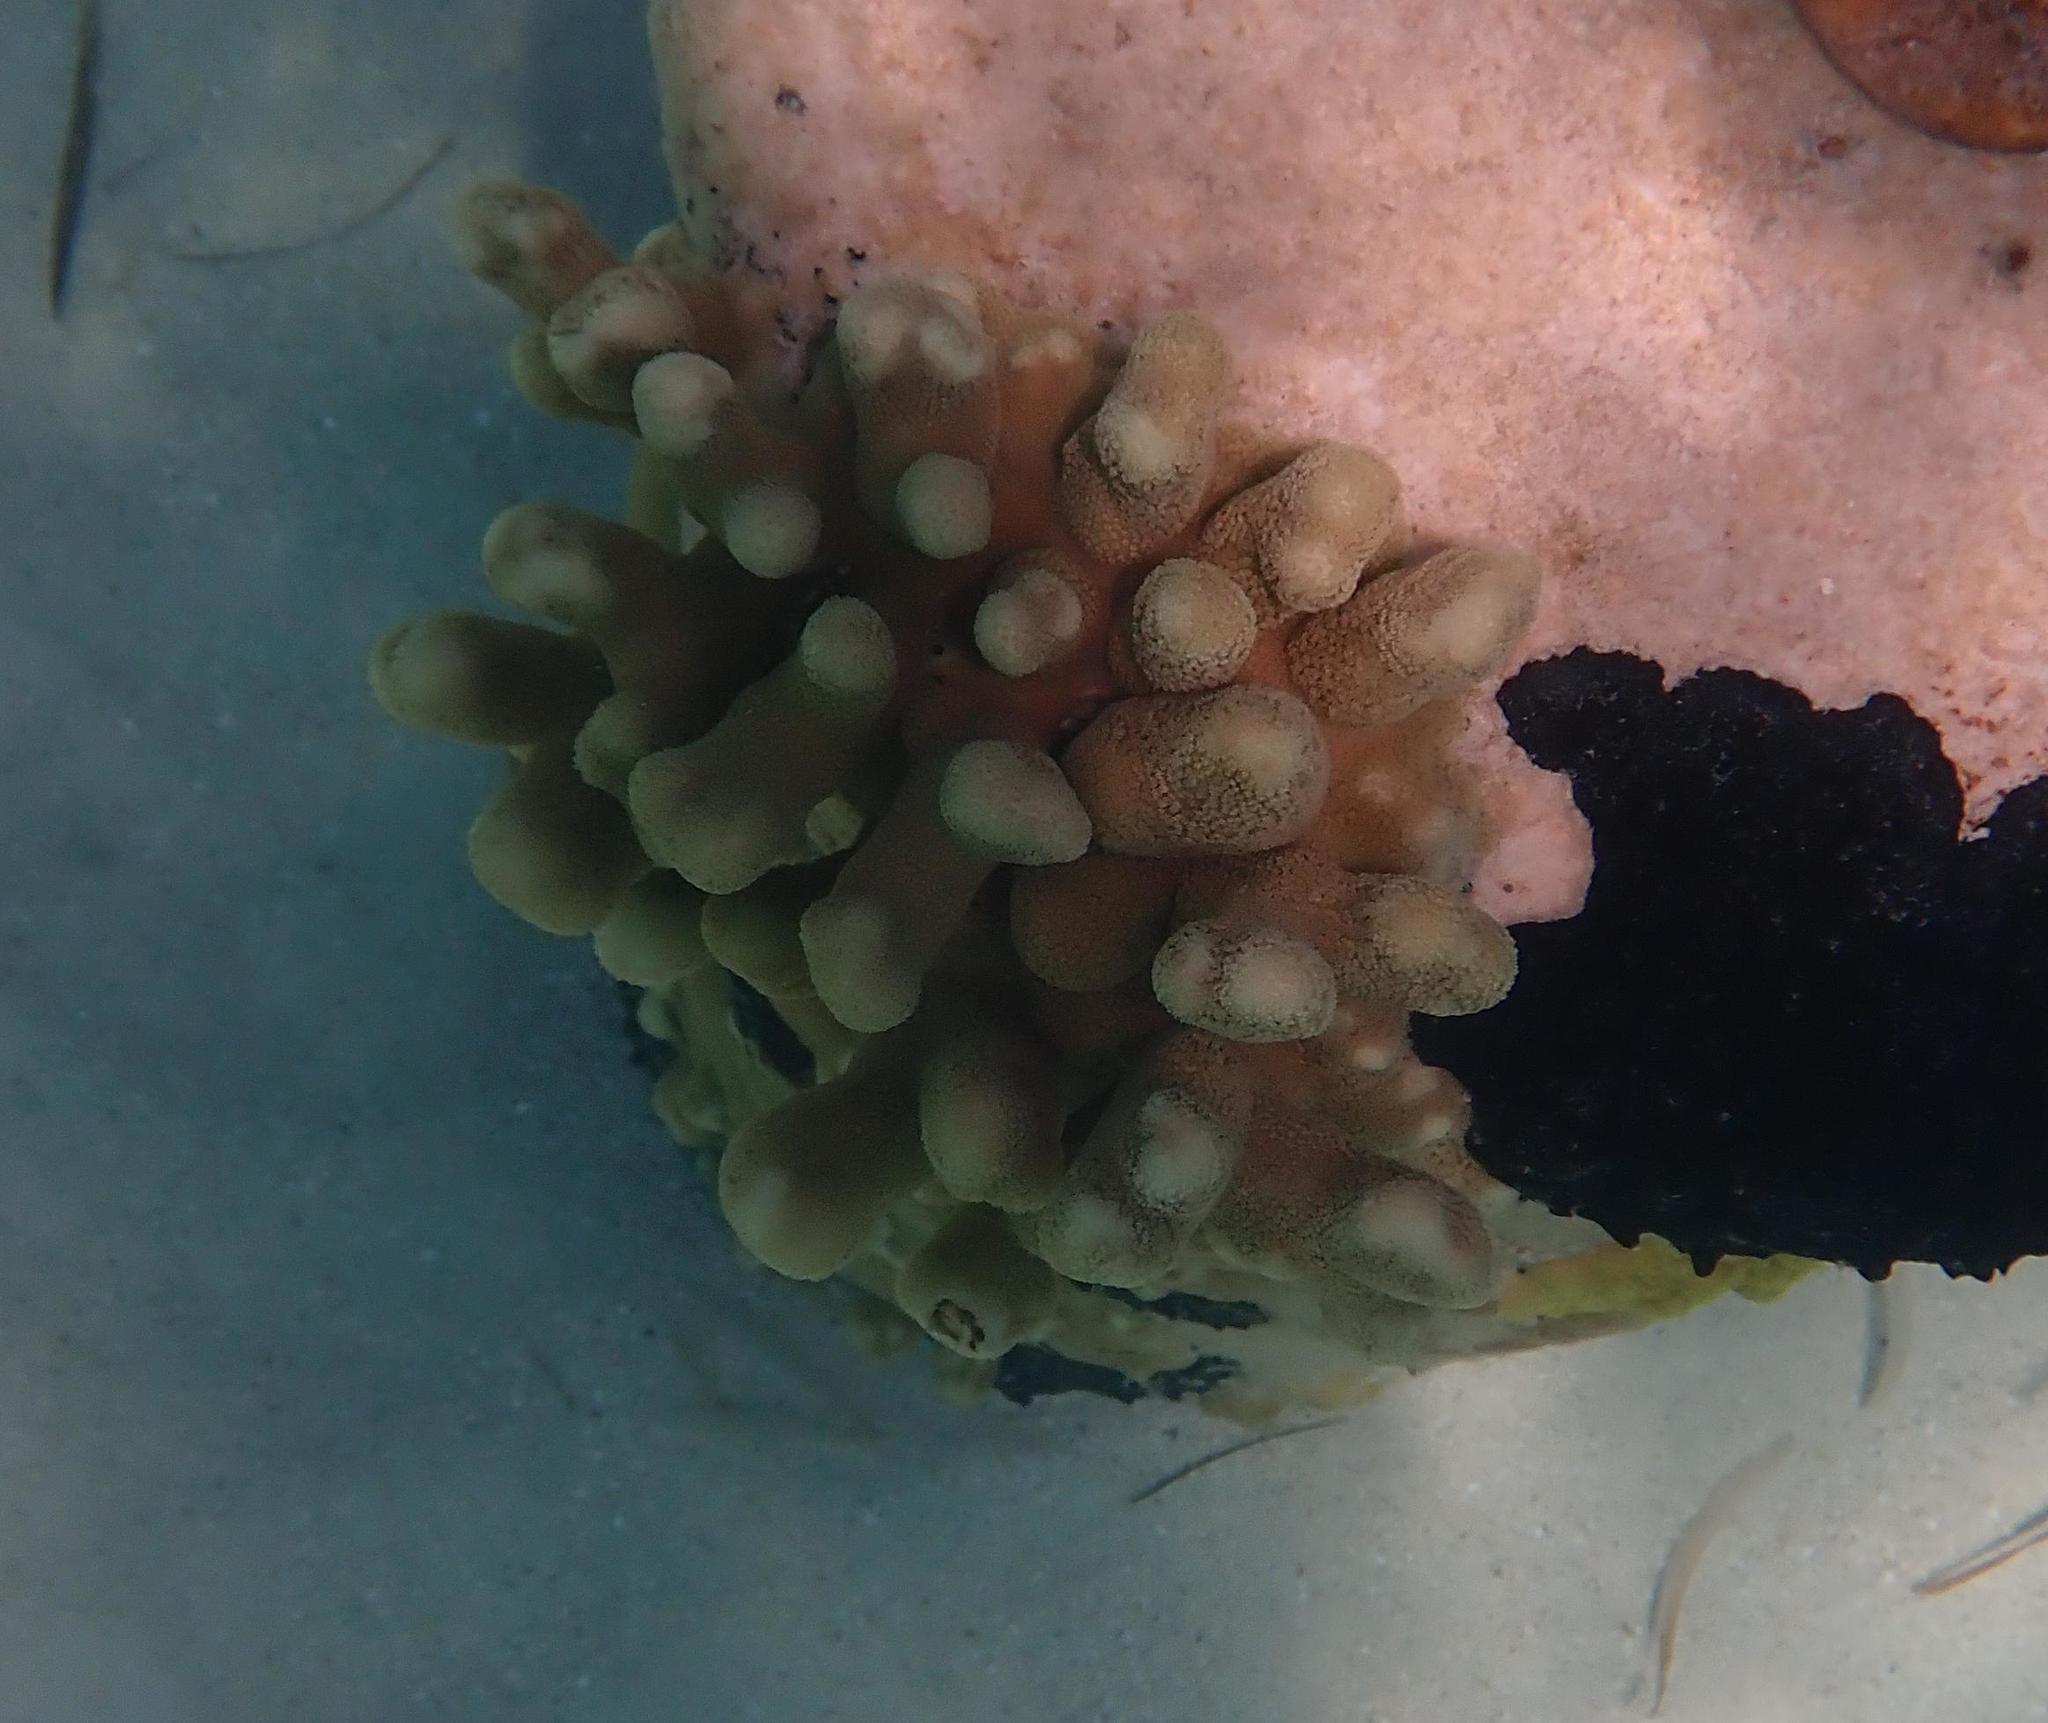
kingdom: Animalia
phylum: Cnidaria
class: Anthozoa
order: Scleractinia
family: Poritidae
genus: Porites
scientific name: Porites porites
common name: Finger coral
